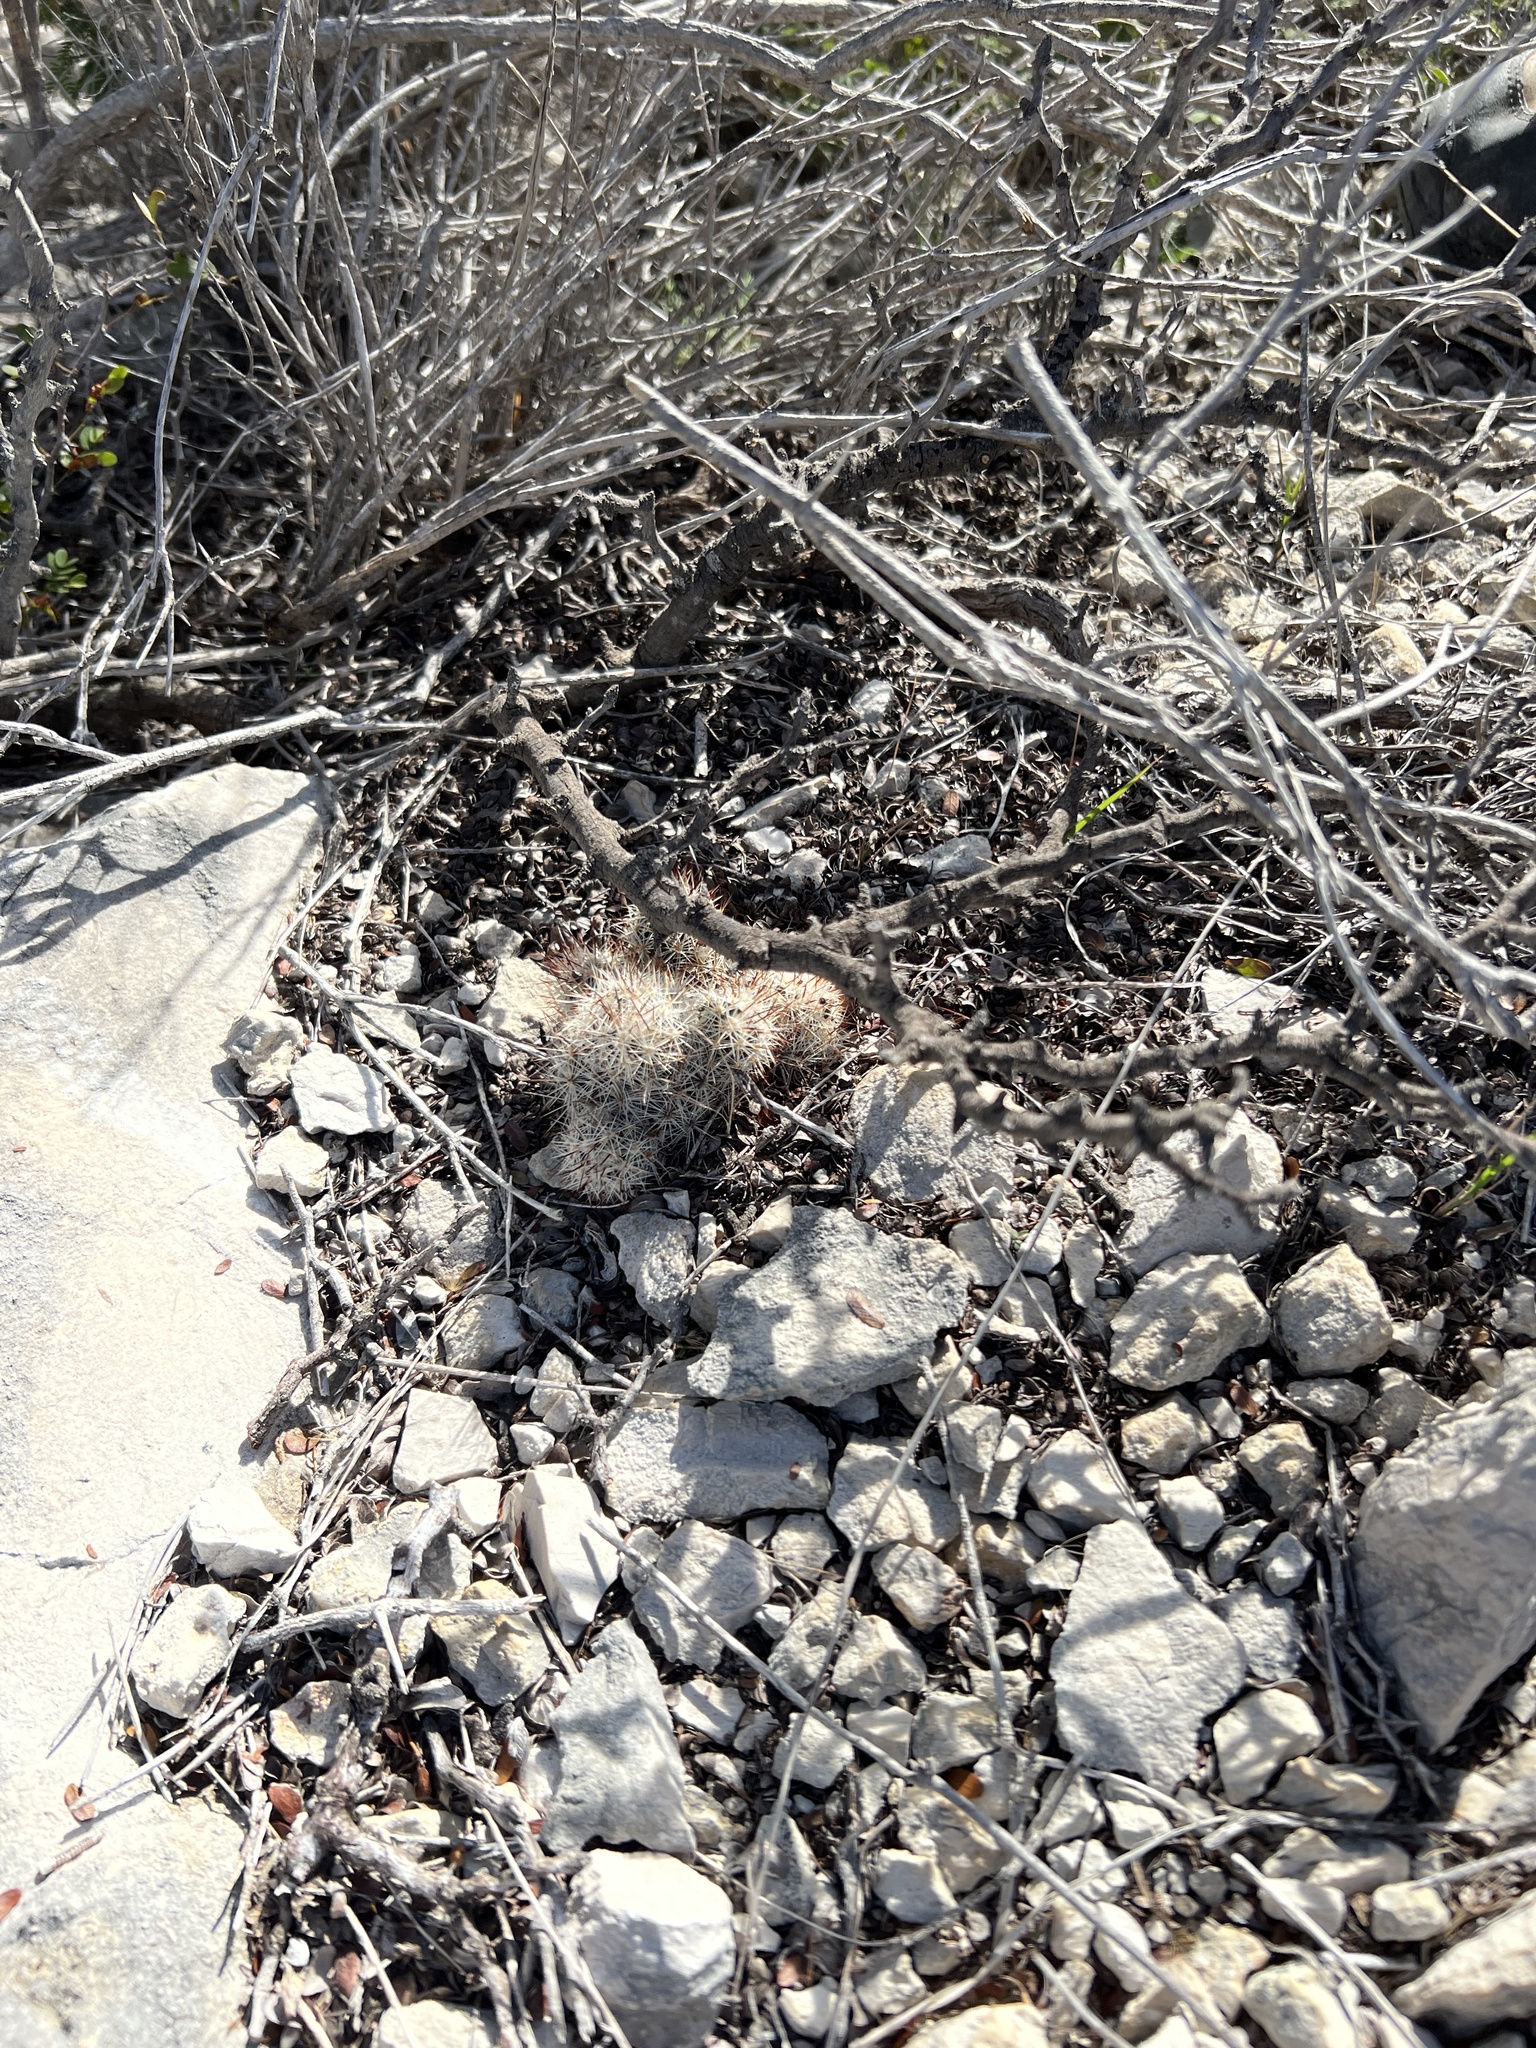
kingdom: Plantae
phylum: Tracheophyta
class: Magnoliopsida
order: Caryophyllales
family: Cactaceae
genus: Pelecyphora
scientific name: Pelecyphora emskoetteriana
